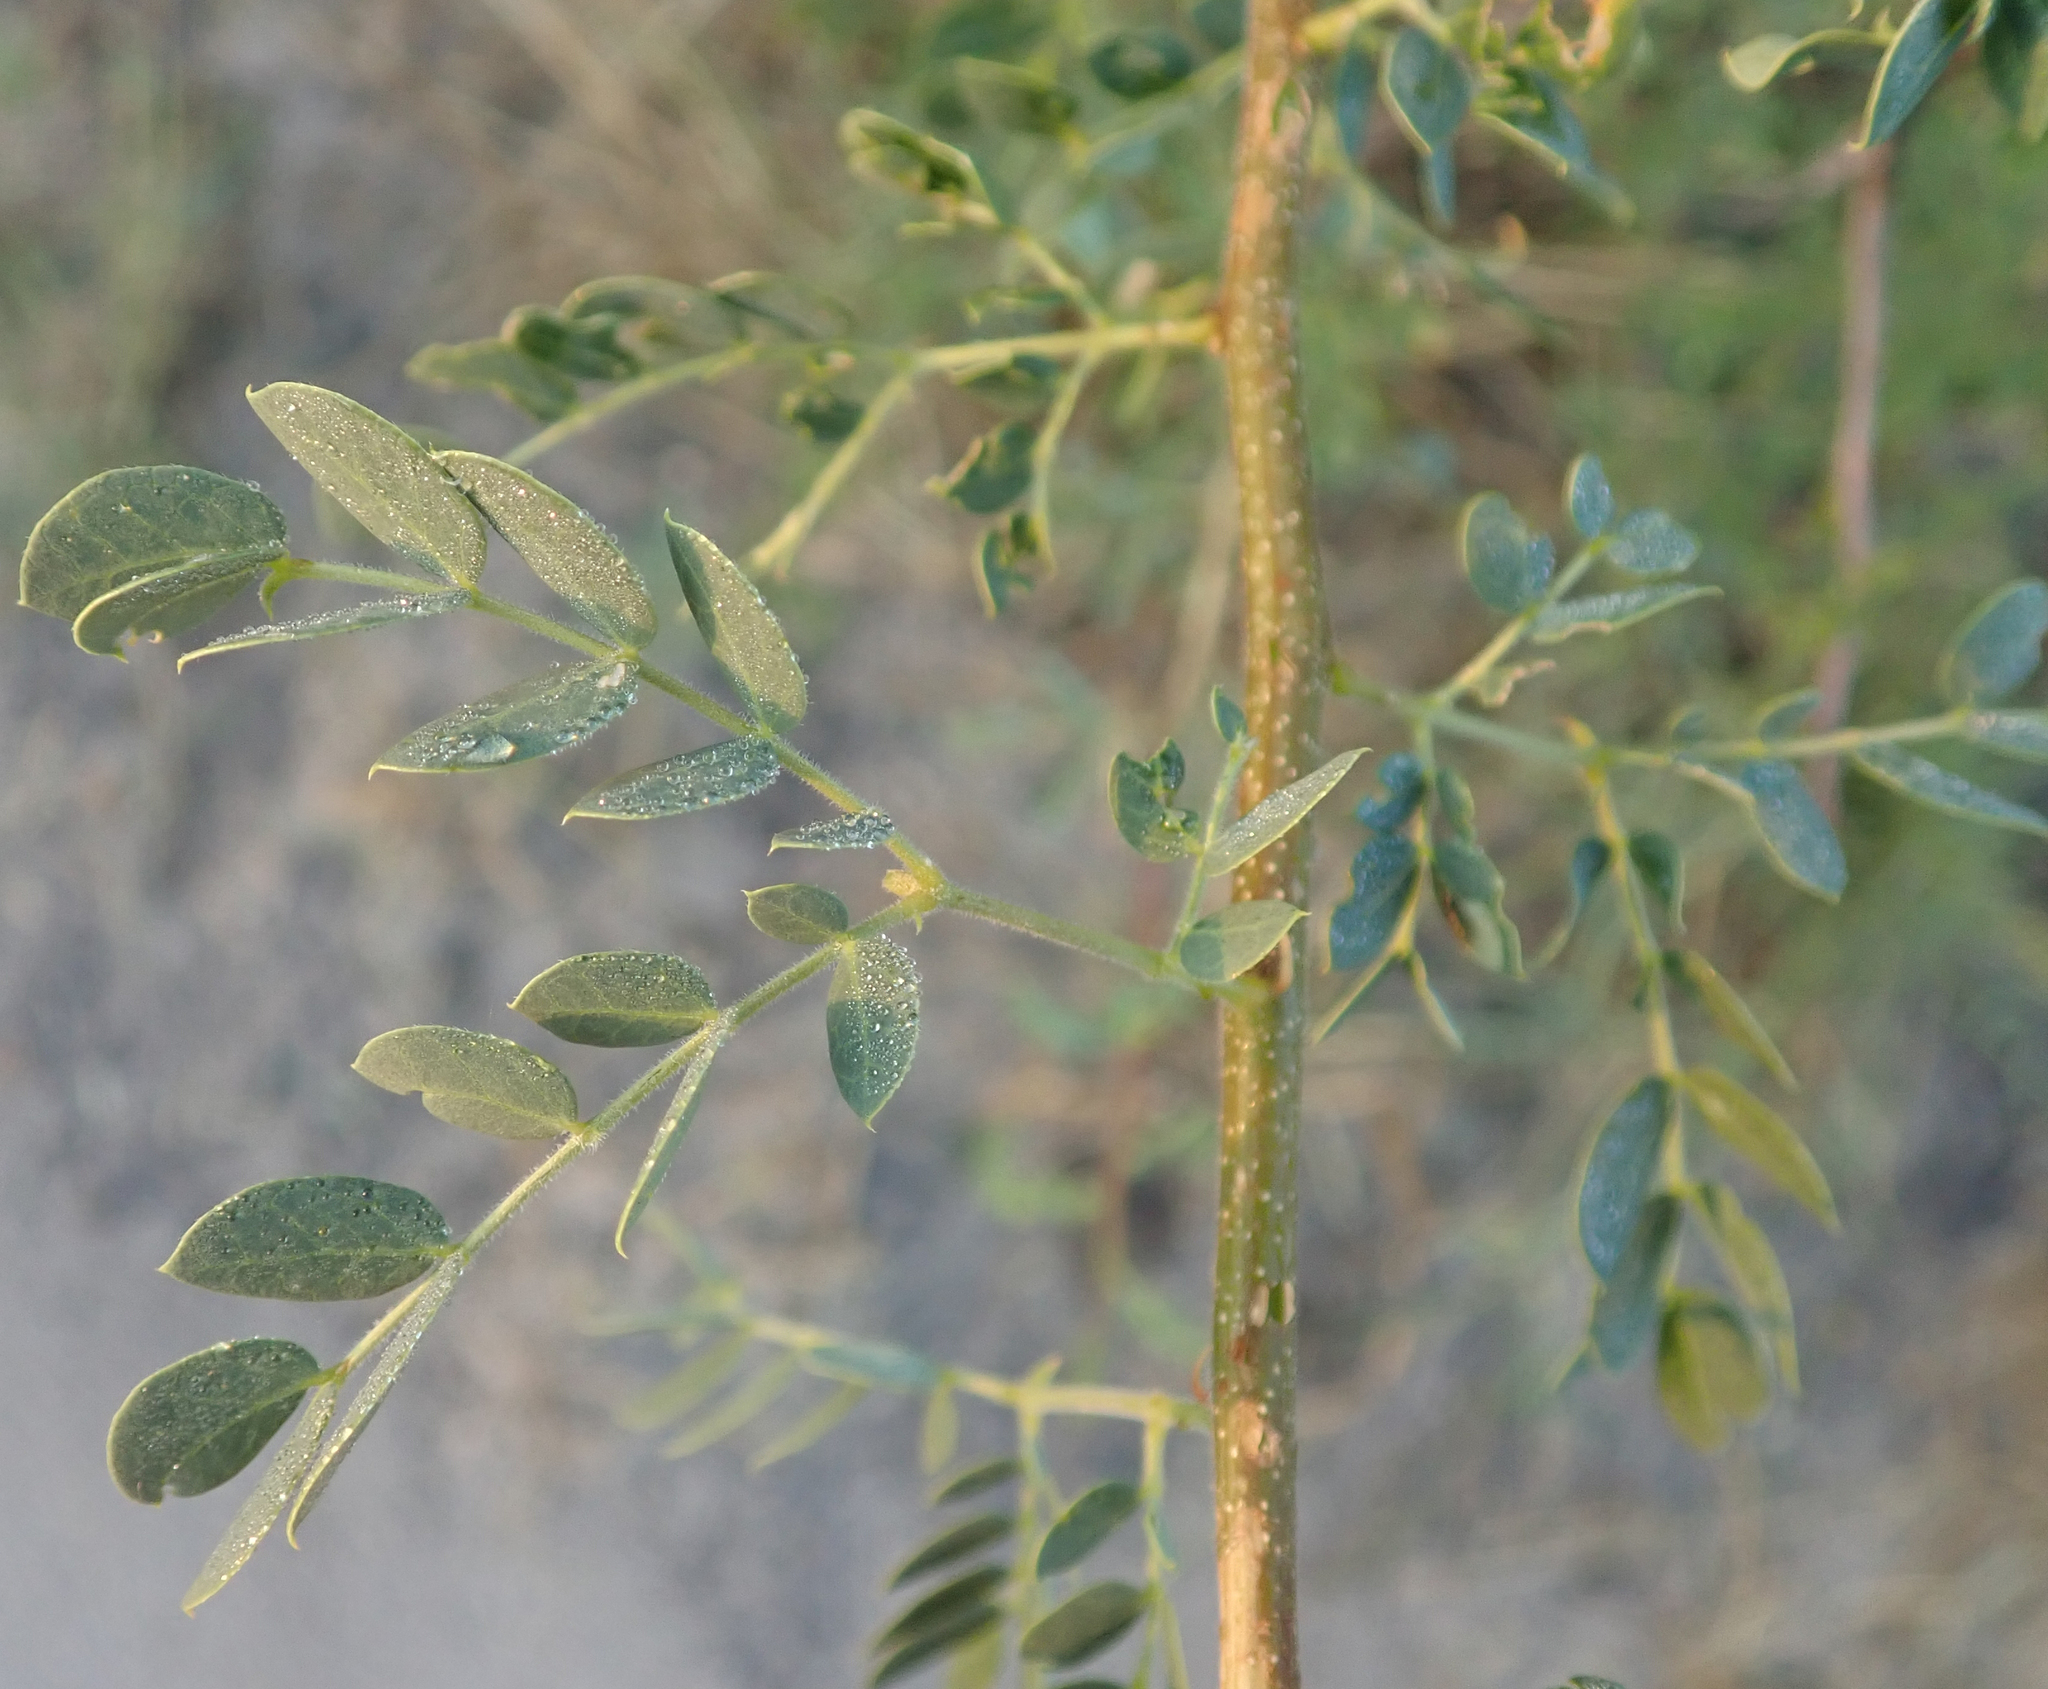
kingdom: Plantae
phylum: Tracheophyta
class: Magnoliopsida
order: Fabales
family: Fabaceae
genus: Albizia
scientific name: Albizia anthelmintica
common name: Worm-bark false-thorn
